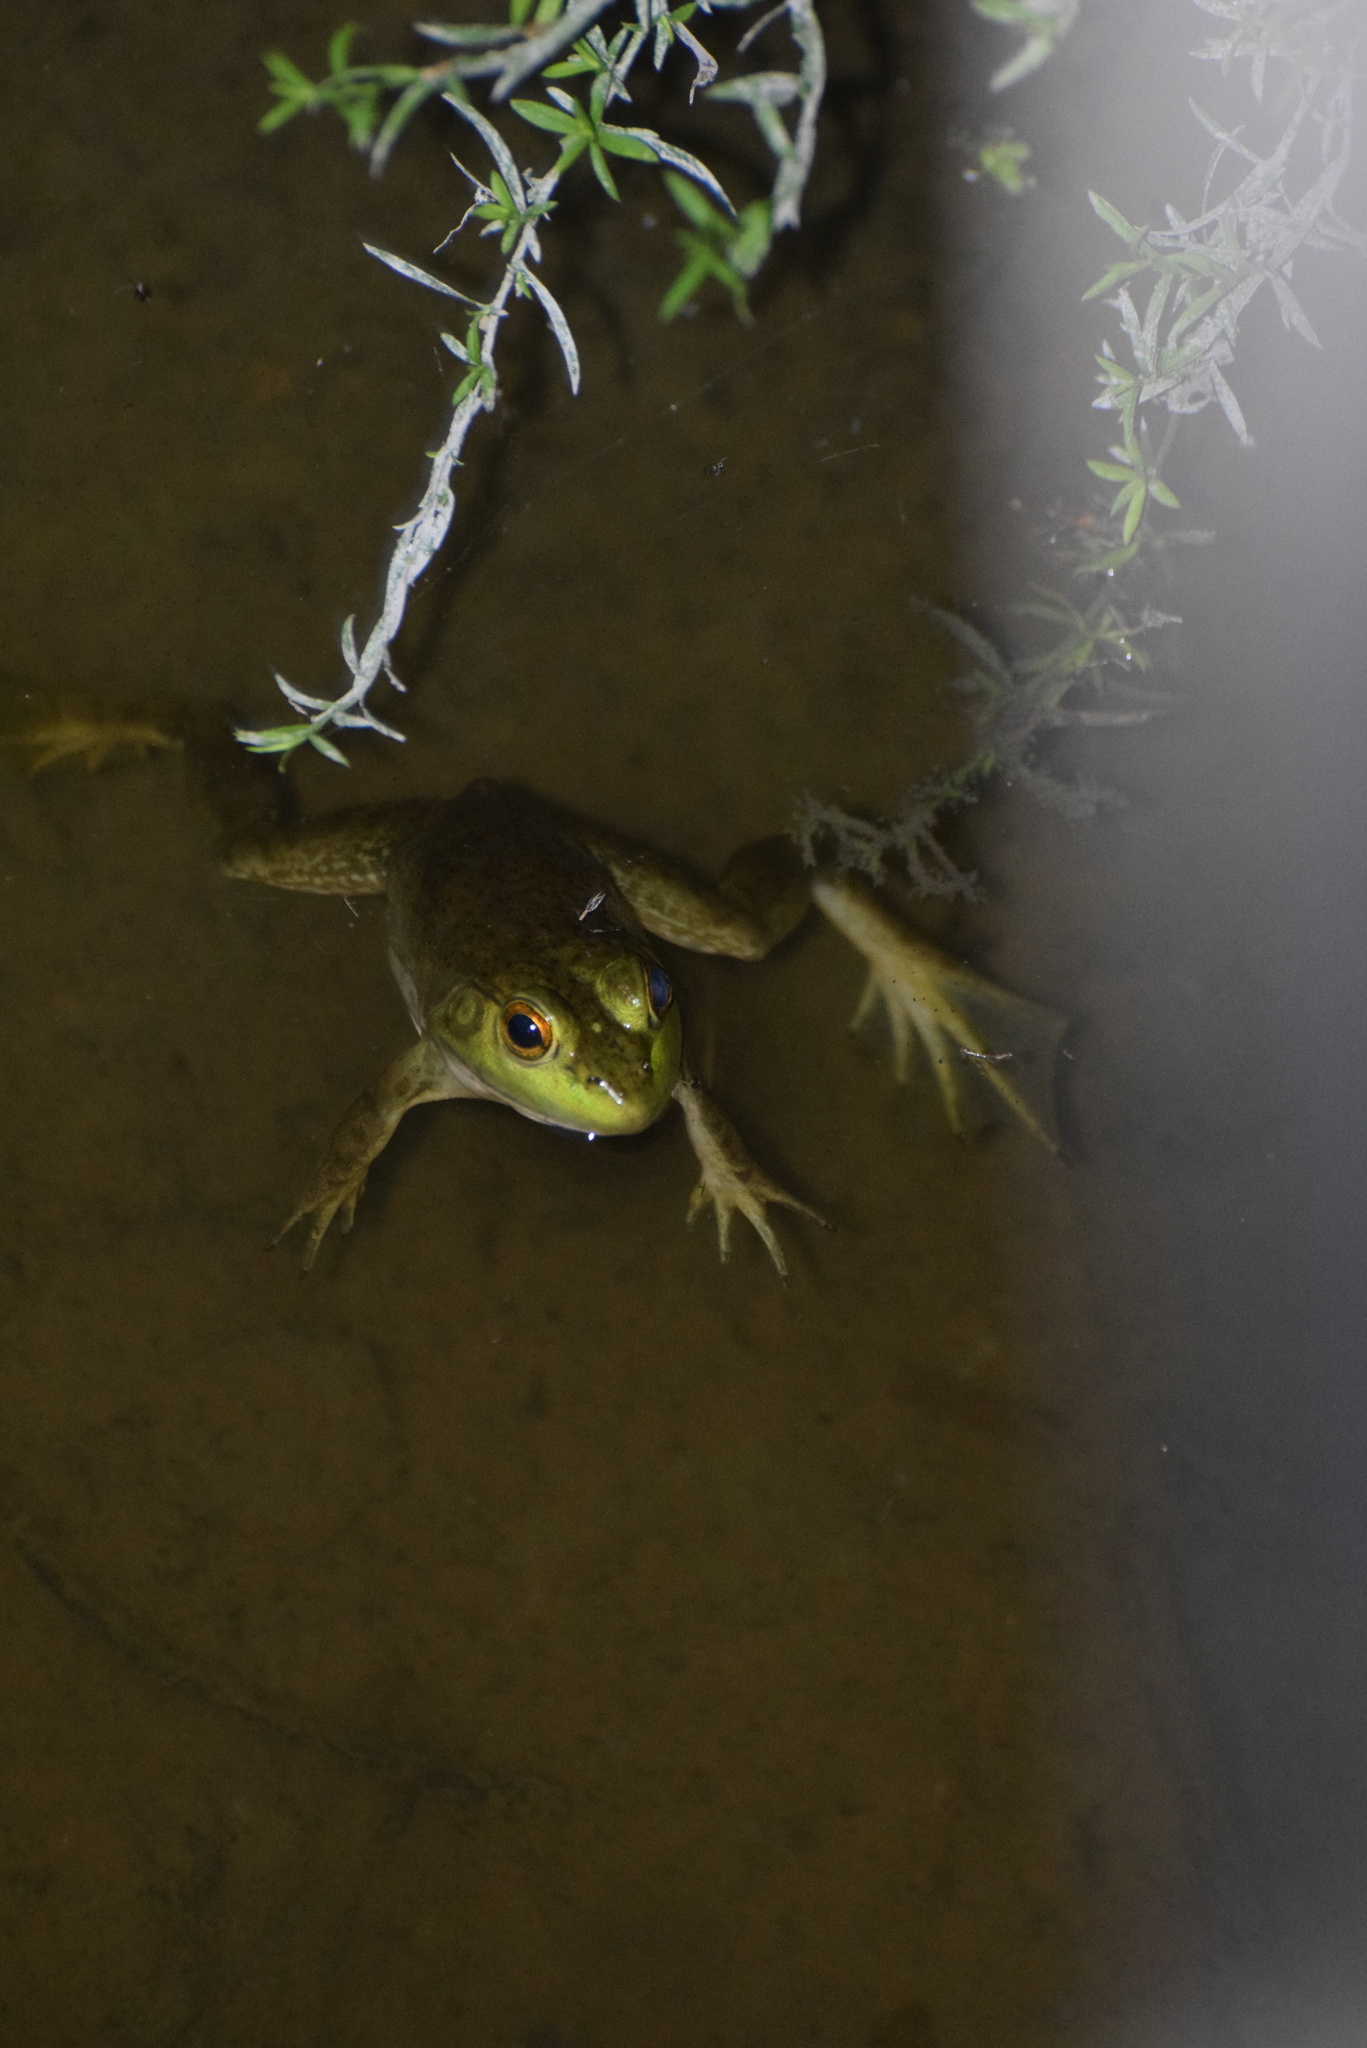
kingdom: Animalia
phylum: Chordata
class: Amphibia
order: Anura
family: Ranidae
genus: Lithobates
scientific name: Lithobates catesbeianus
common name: American bullfrog
